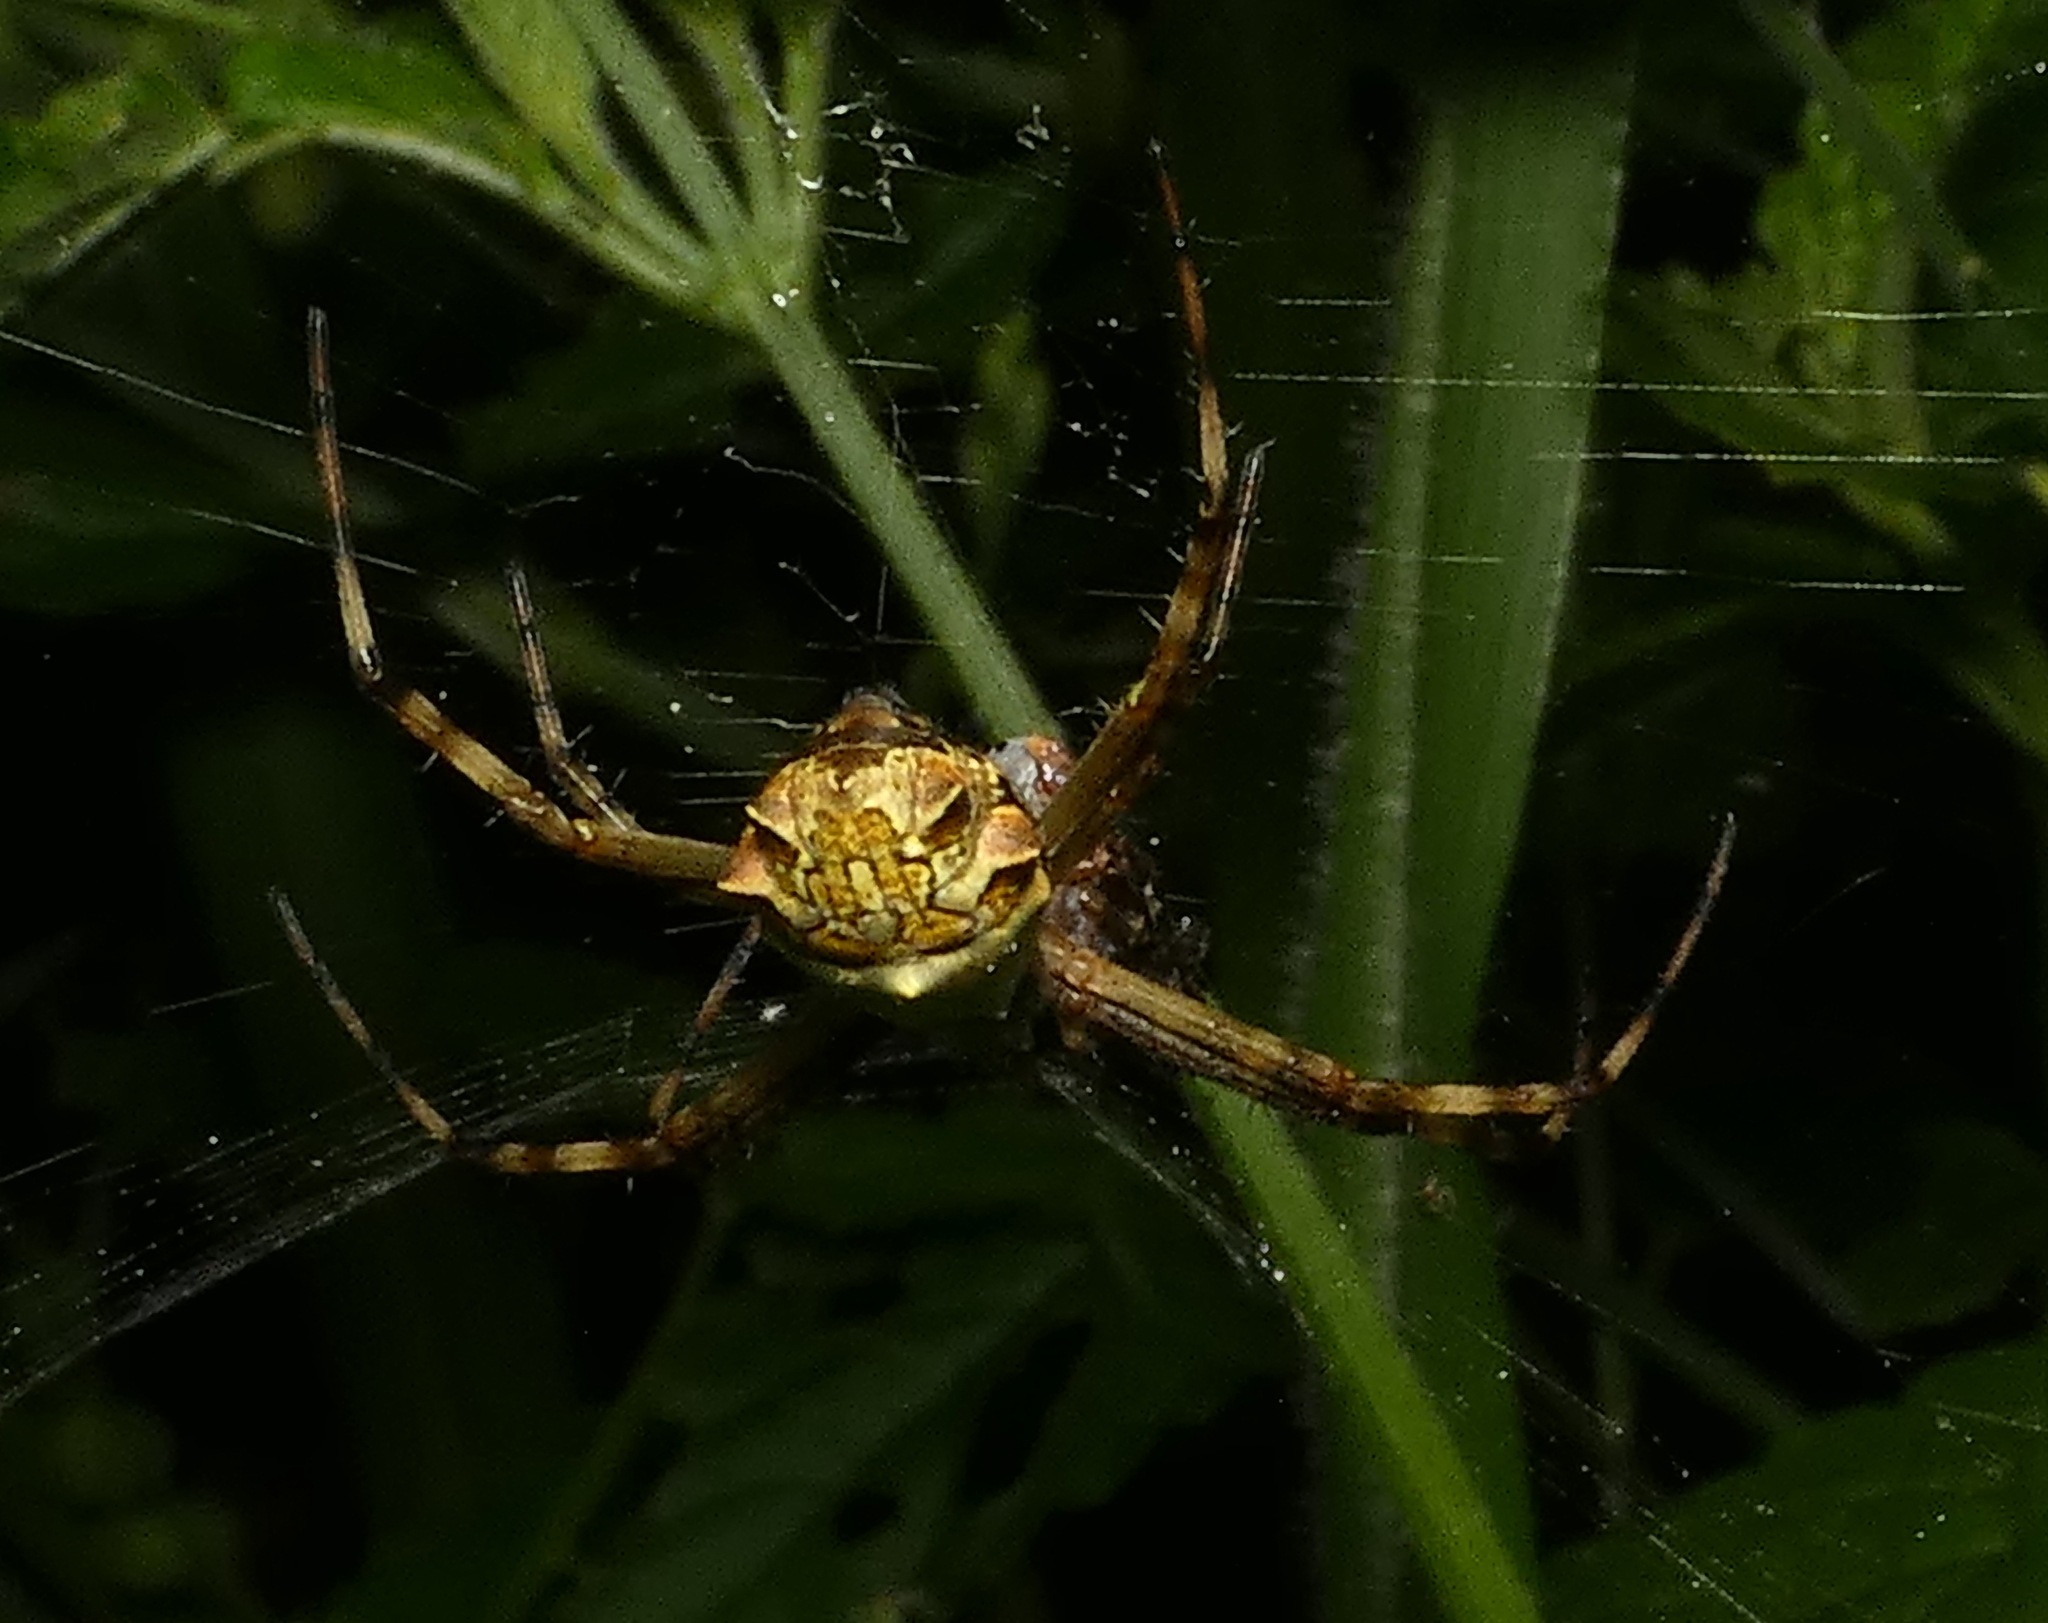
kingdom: Animalia
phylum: Arthropoda
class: Arachnida
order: Araneae
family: Araneidae
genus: Argiope
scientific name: Argiope argentata
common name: Orb weavers
